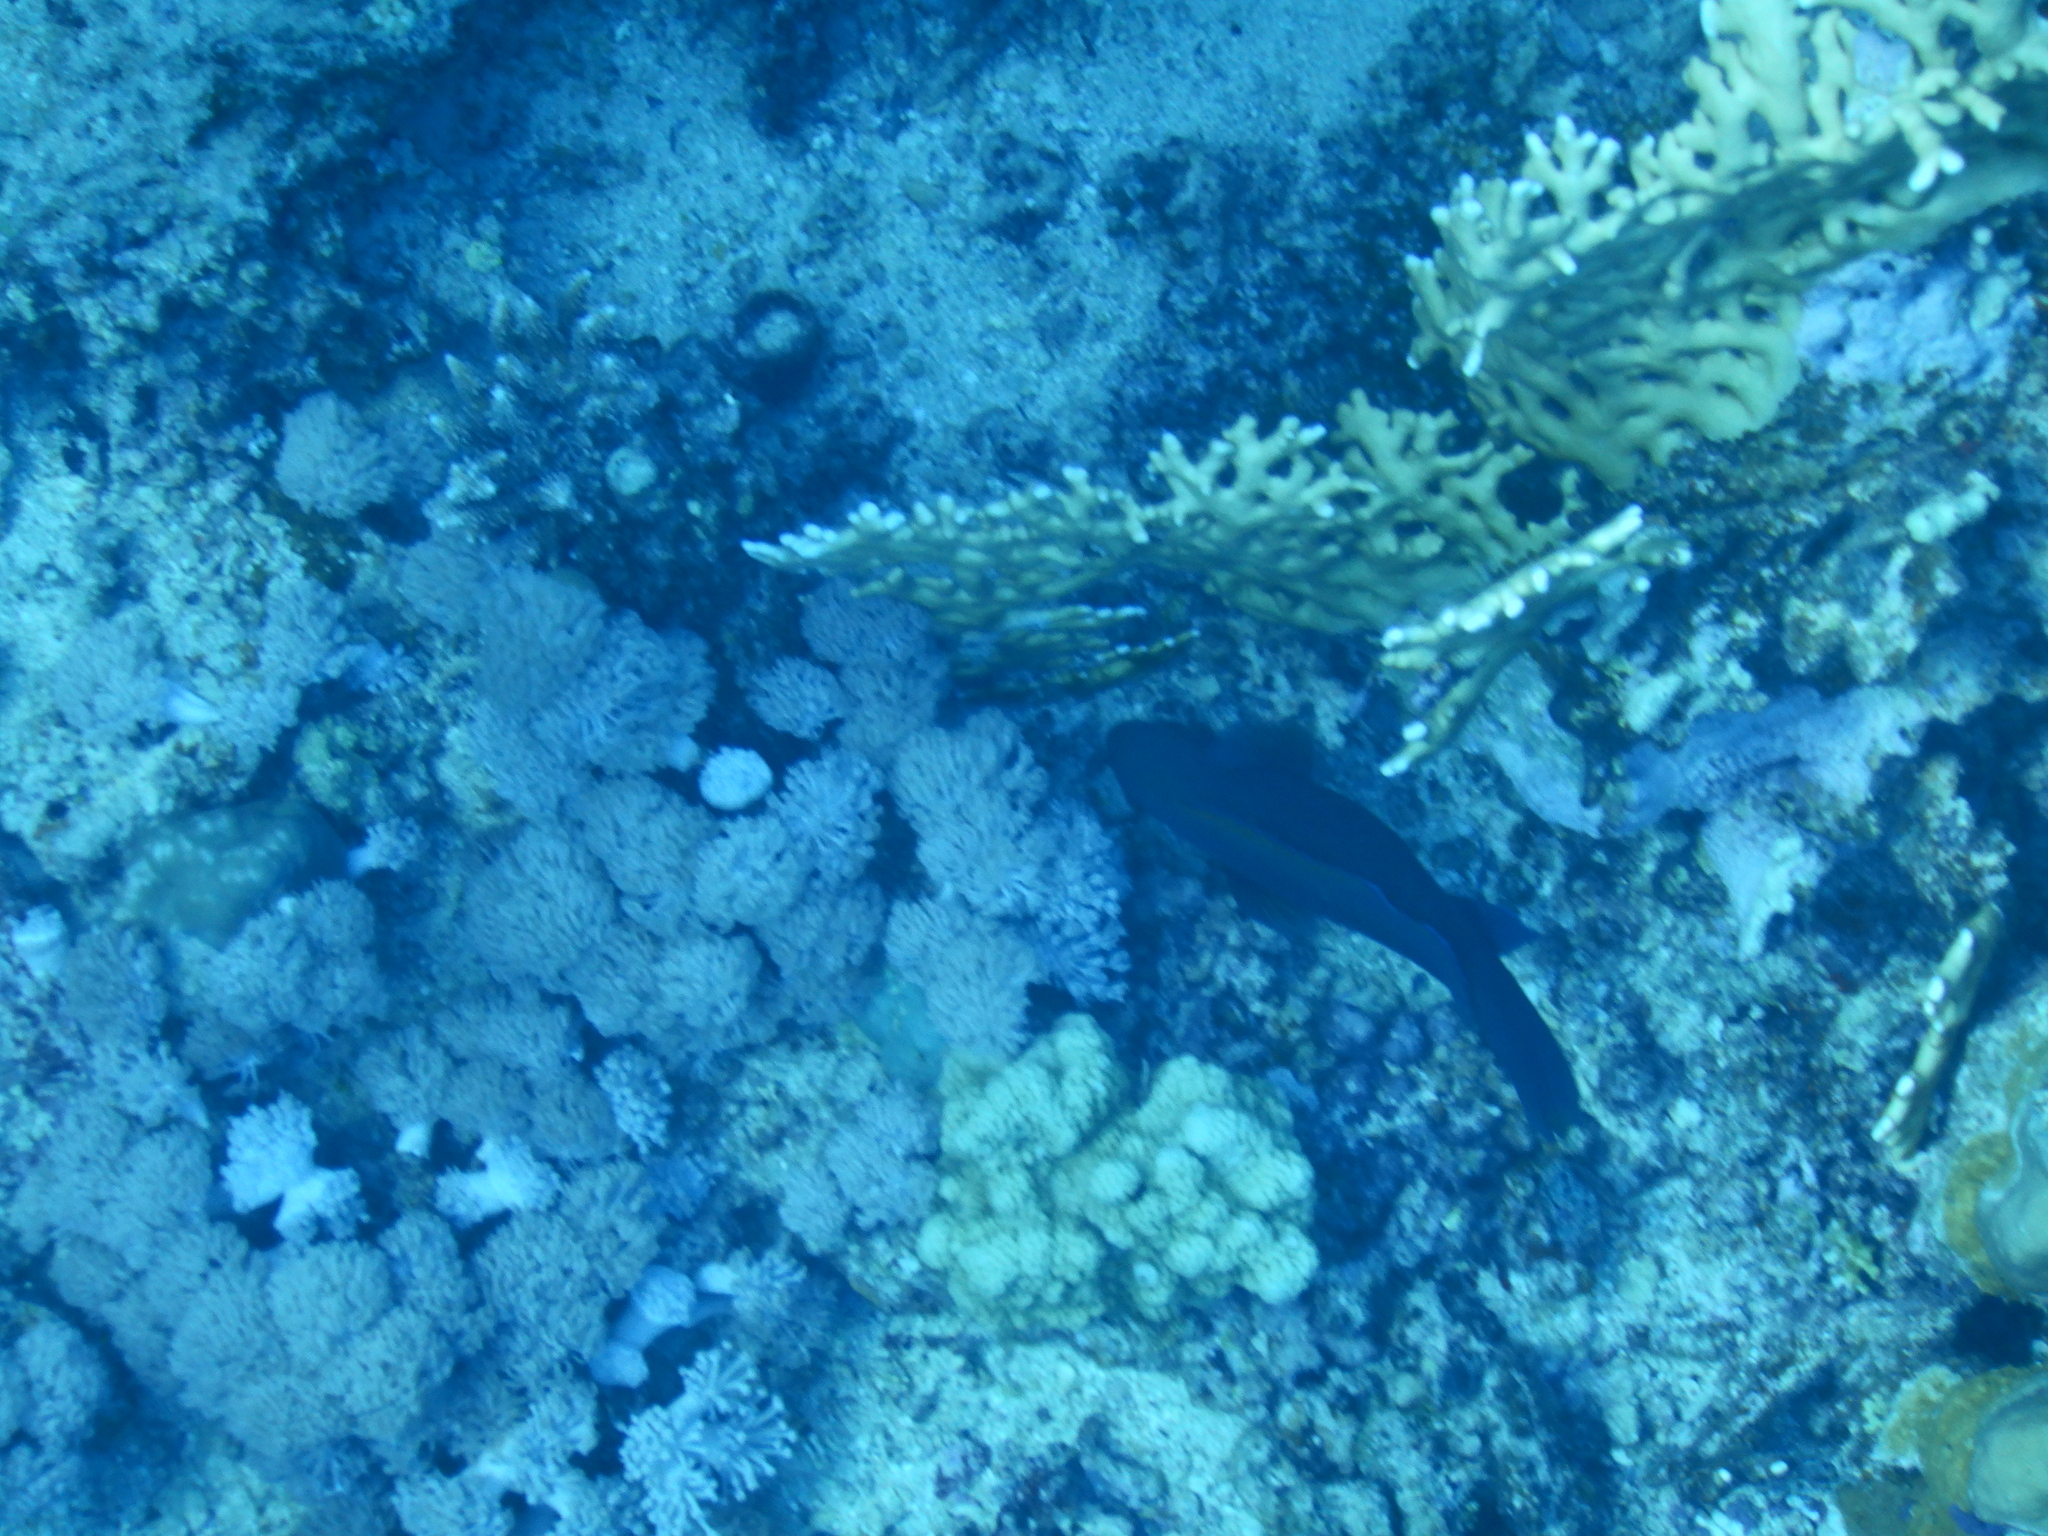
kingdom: Animalia
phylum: Chordata
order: Perciformes
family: Scaridae
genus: Scarus
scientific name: Scarus niger
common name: Dusky parrotfish
